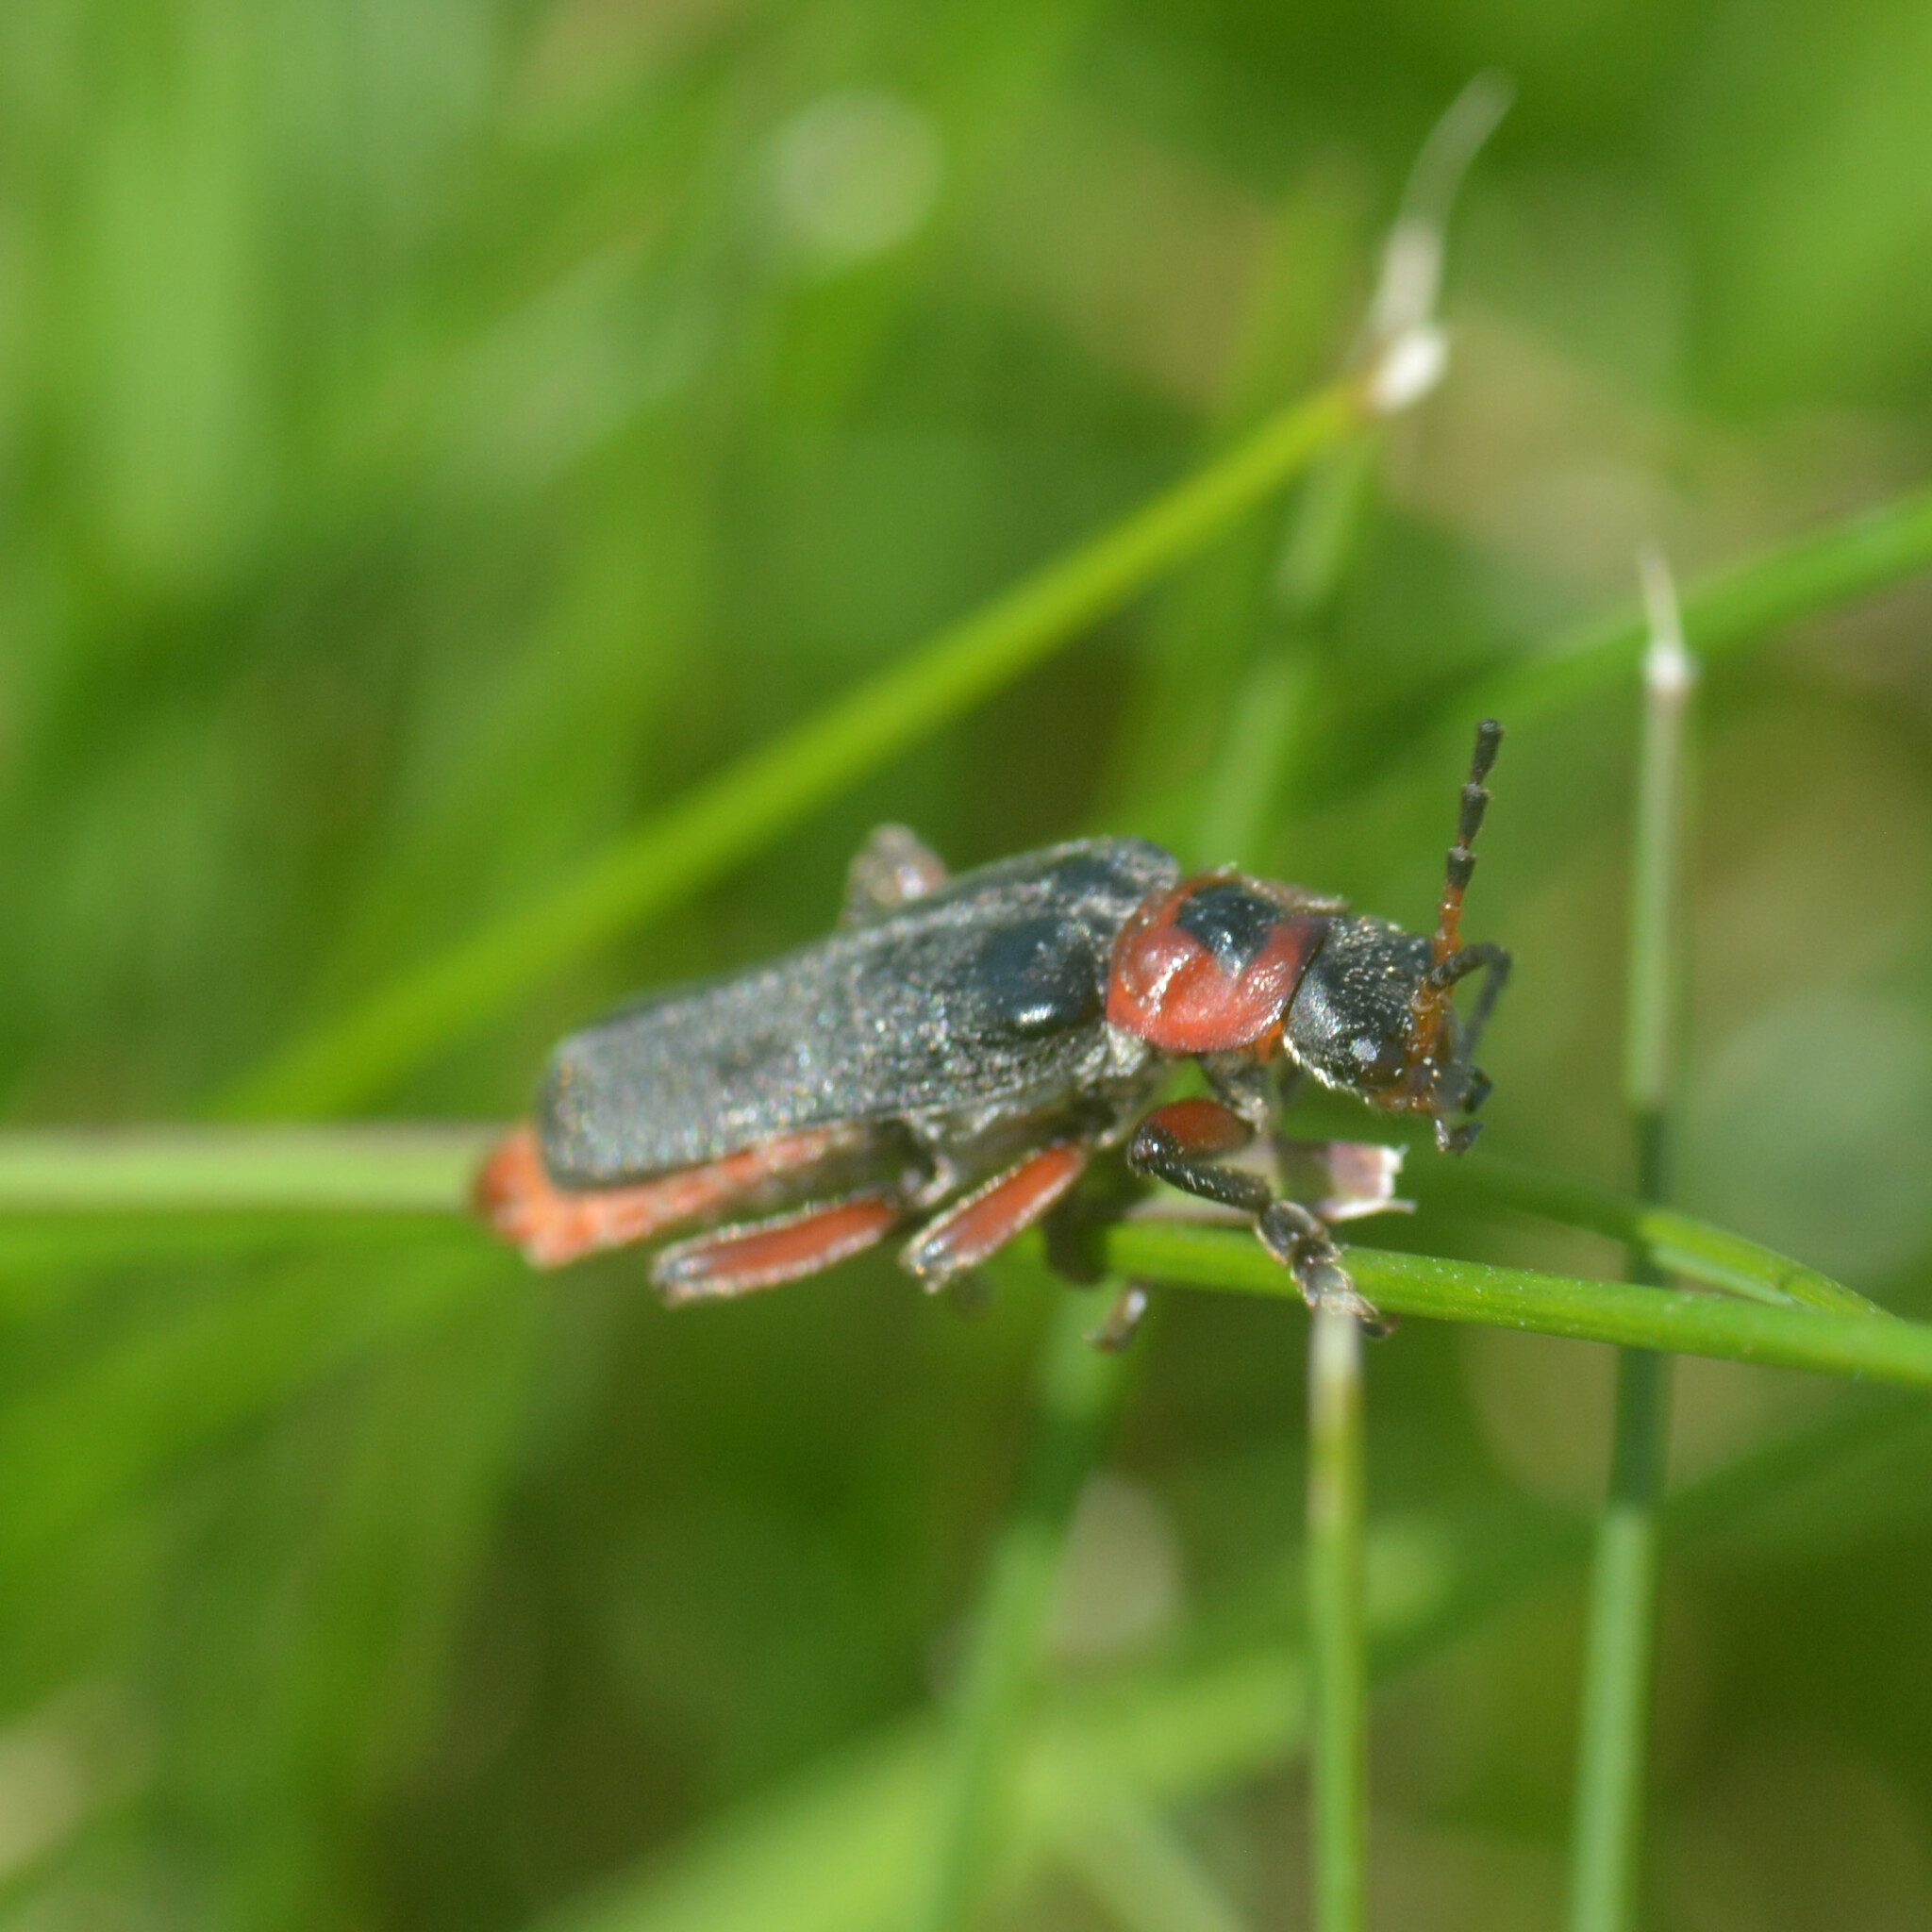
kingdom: Animalia
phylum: Arthropoda
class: Insecta
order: Coleoptera
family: Cantharidae
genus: Cantharis
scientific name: Cantharis rustica
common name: Soldier beetle
